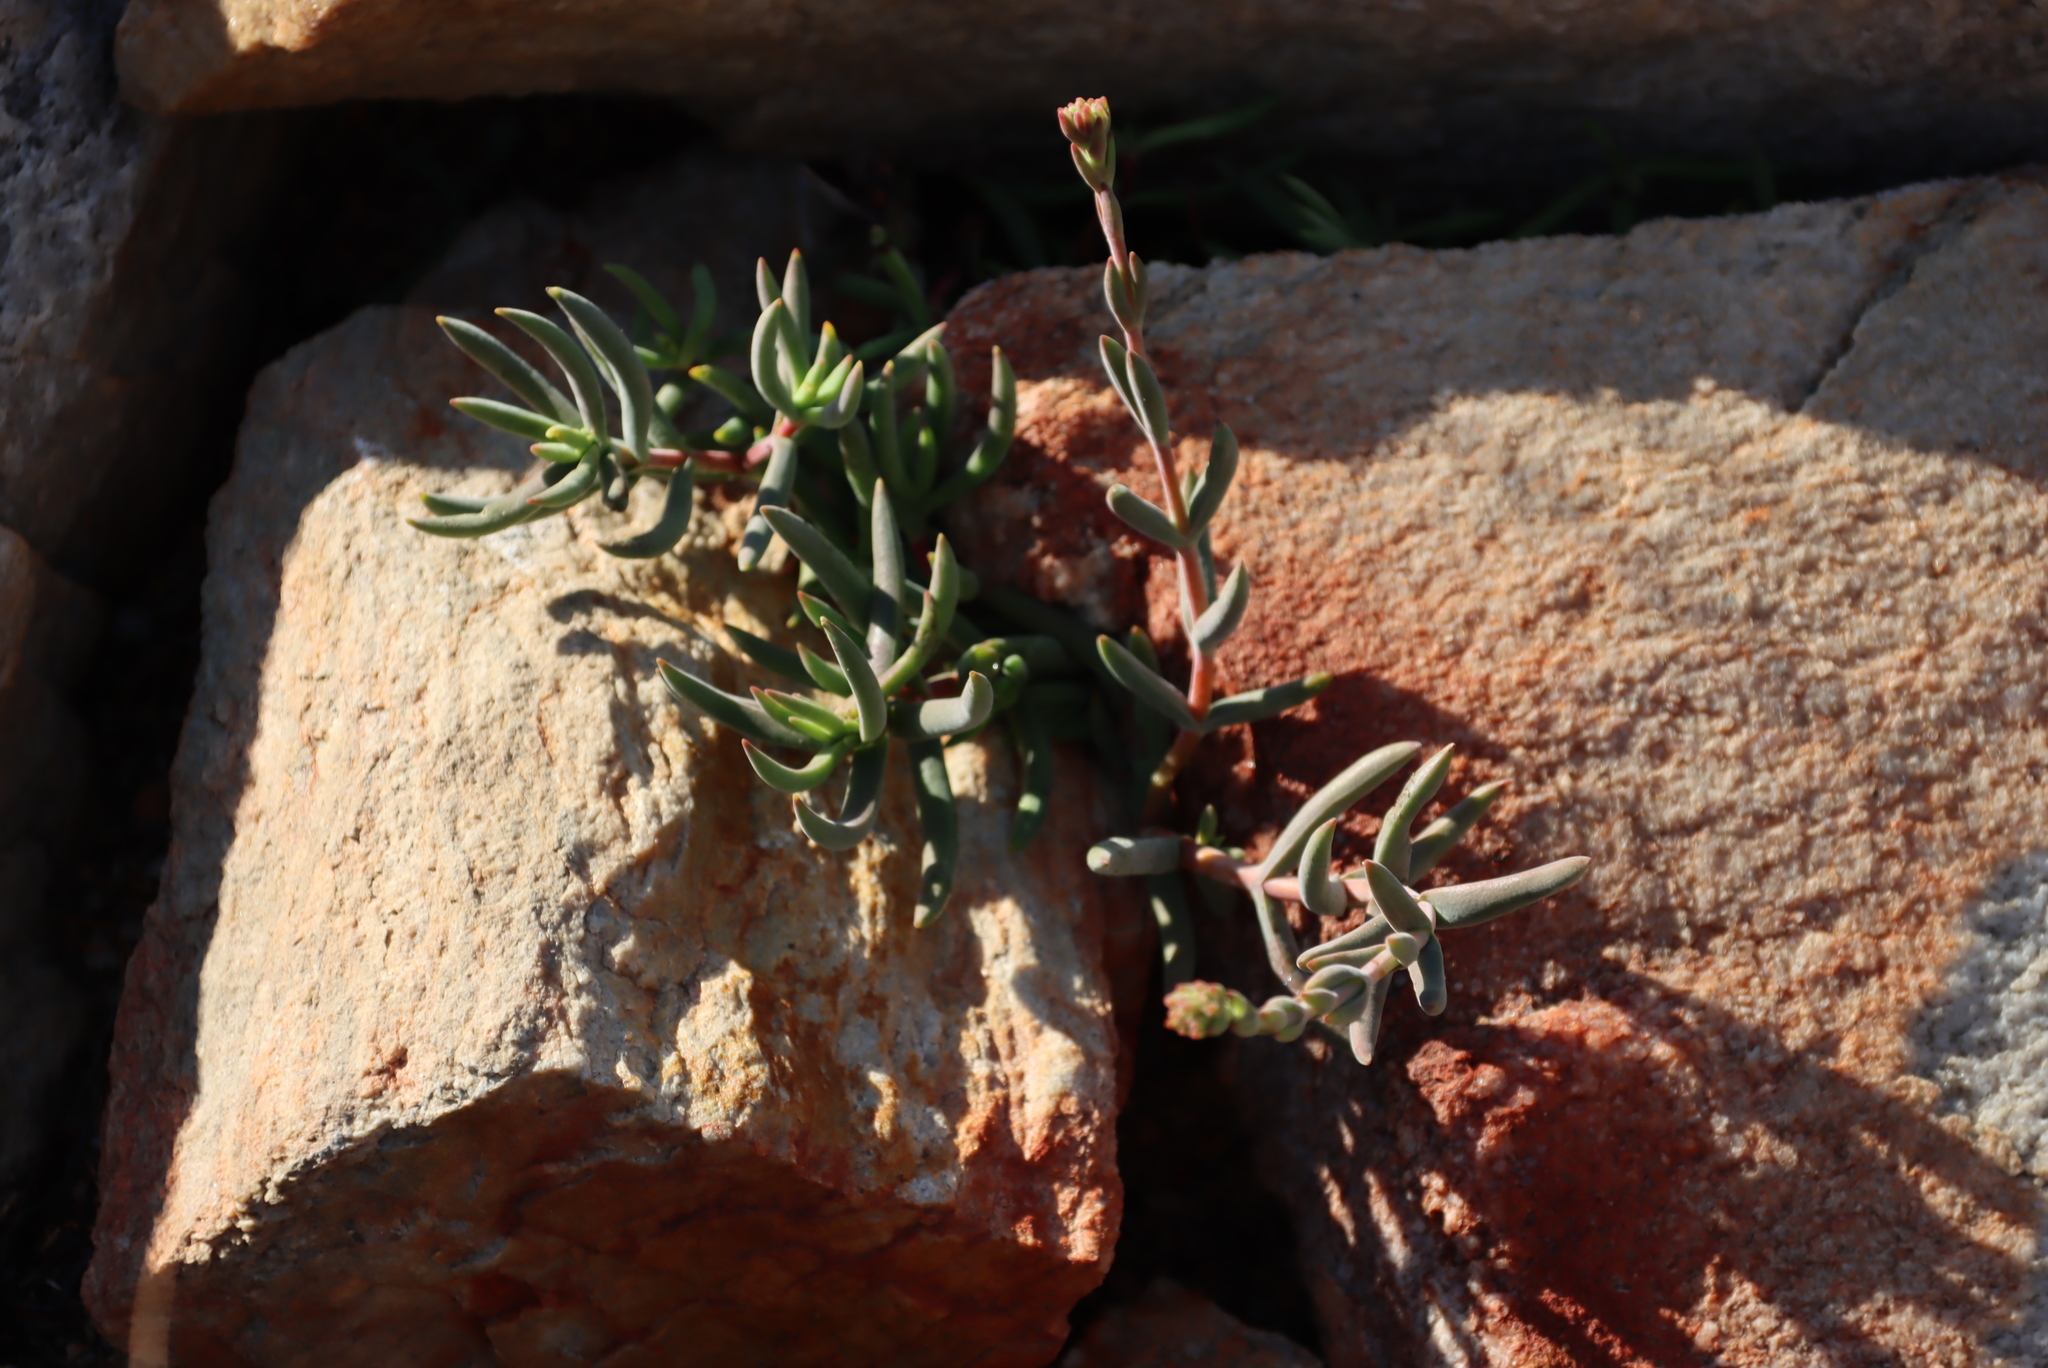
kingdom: Plantae
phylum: Tracheophyta
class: Magnoliopsida
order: Saxifragales
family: Crassulaceae
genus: Crassula
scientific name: Crassula mollis
